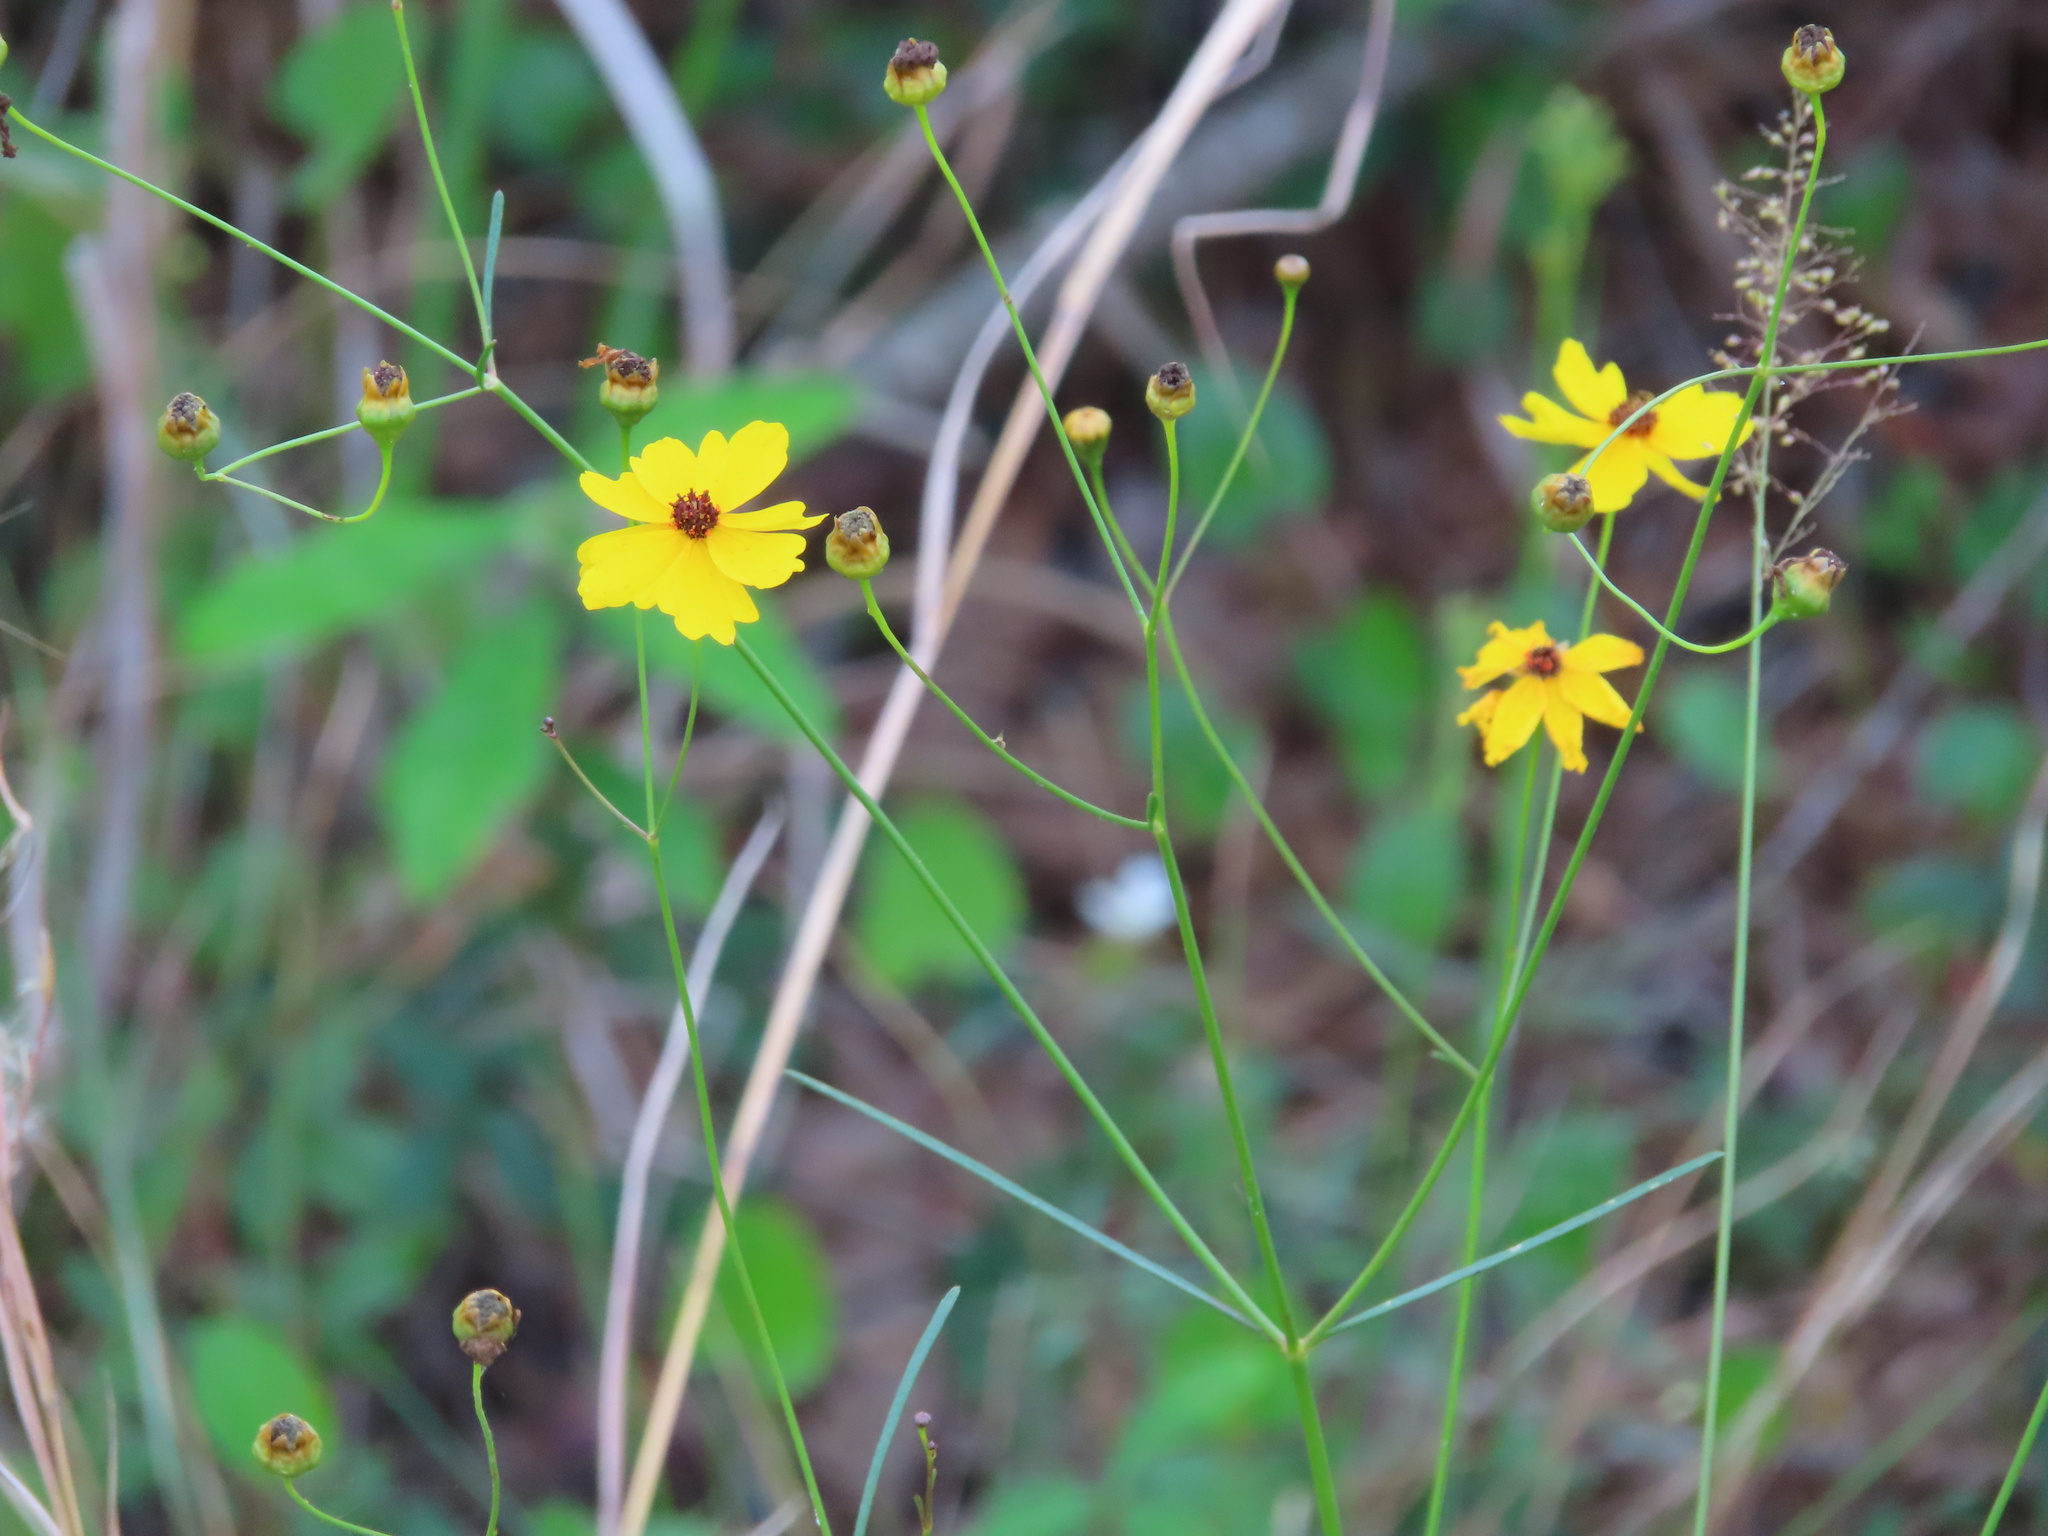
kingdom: Plantae
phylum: Tracheophyta
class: Magnoliopsida
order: Asterales
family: Asteraceae
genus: Coreopsis
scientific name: Coreopsis leavenworthii
